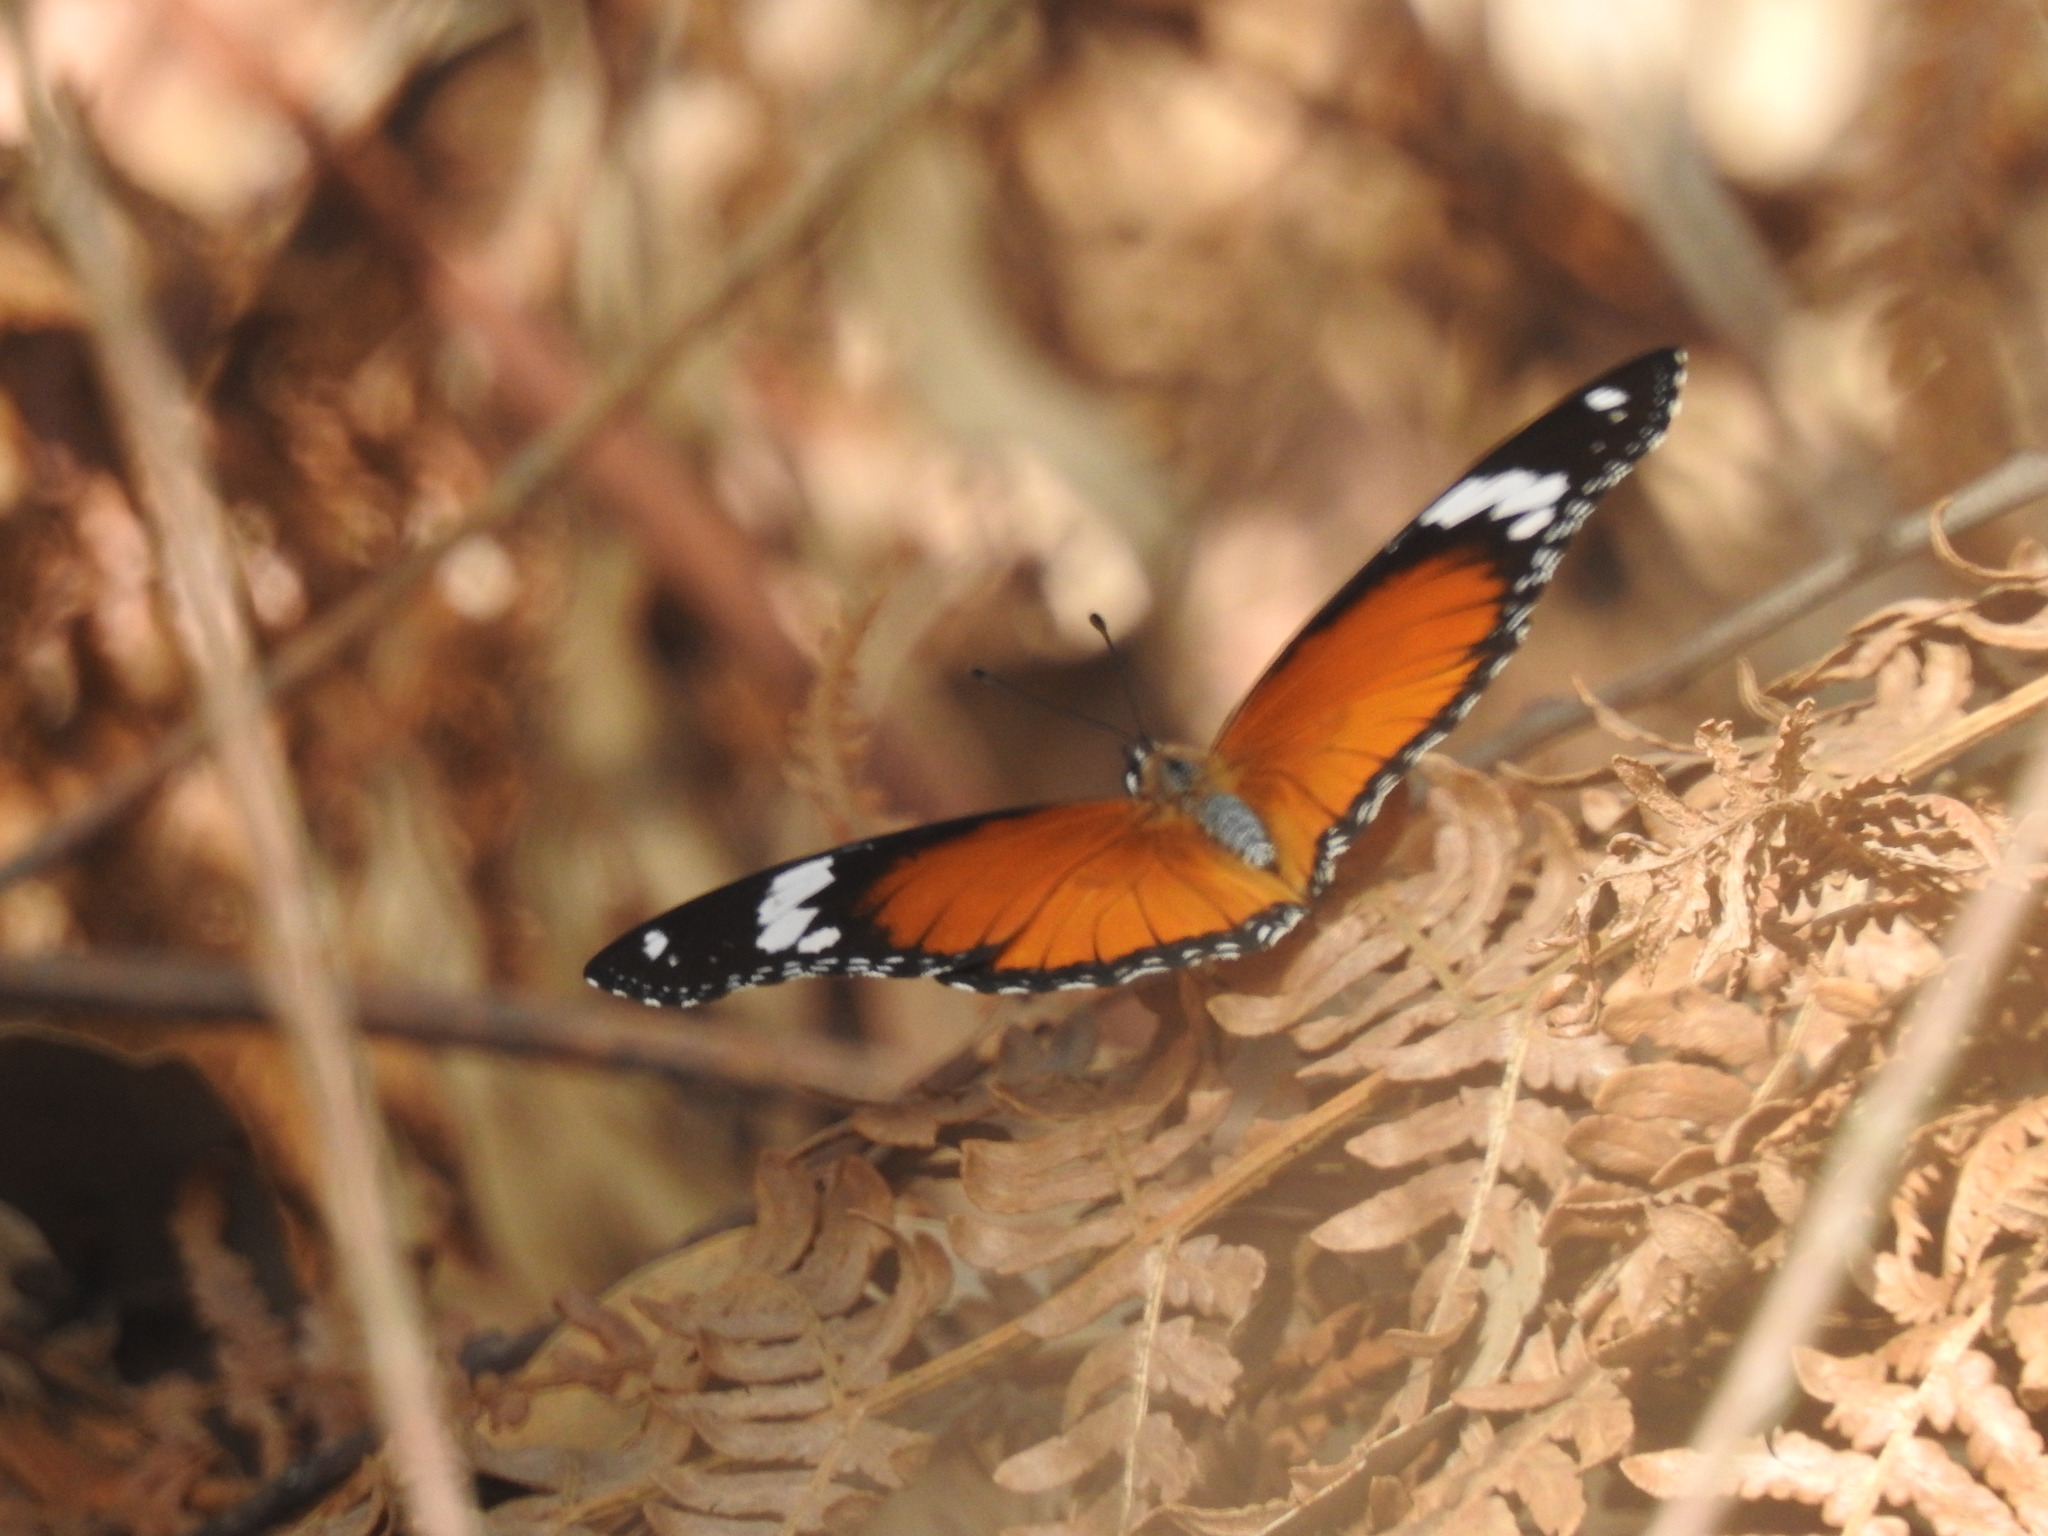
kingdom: Animalia
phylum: Arthropoda
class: Insecta
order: Lepidoptera
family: Nymphalidae
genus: Hypolimnas
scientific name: Hypolimnas misippus
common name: False plain tiger
